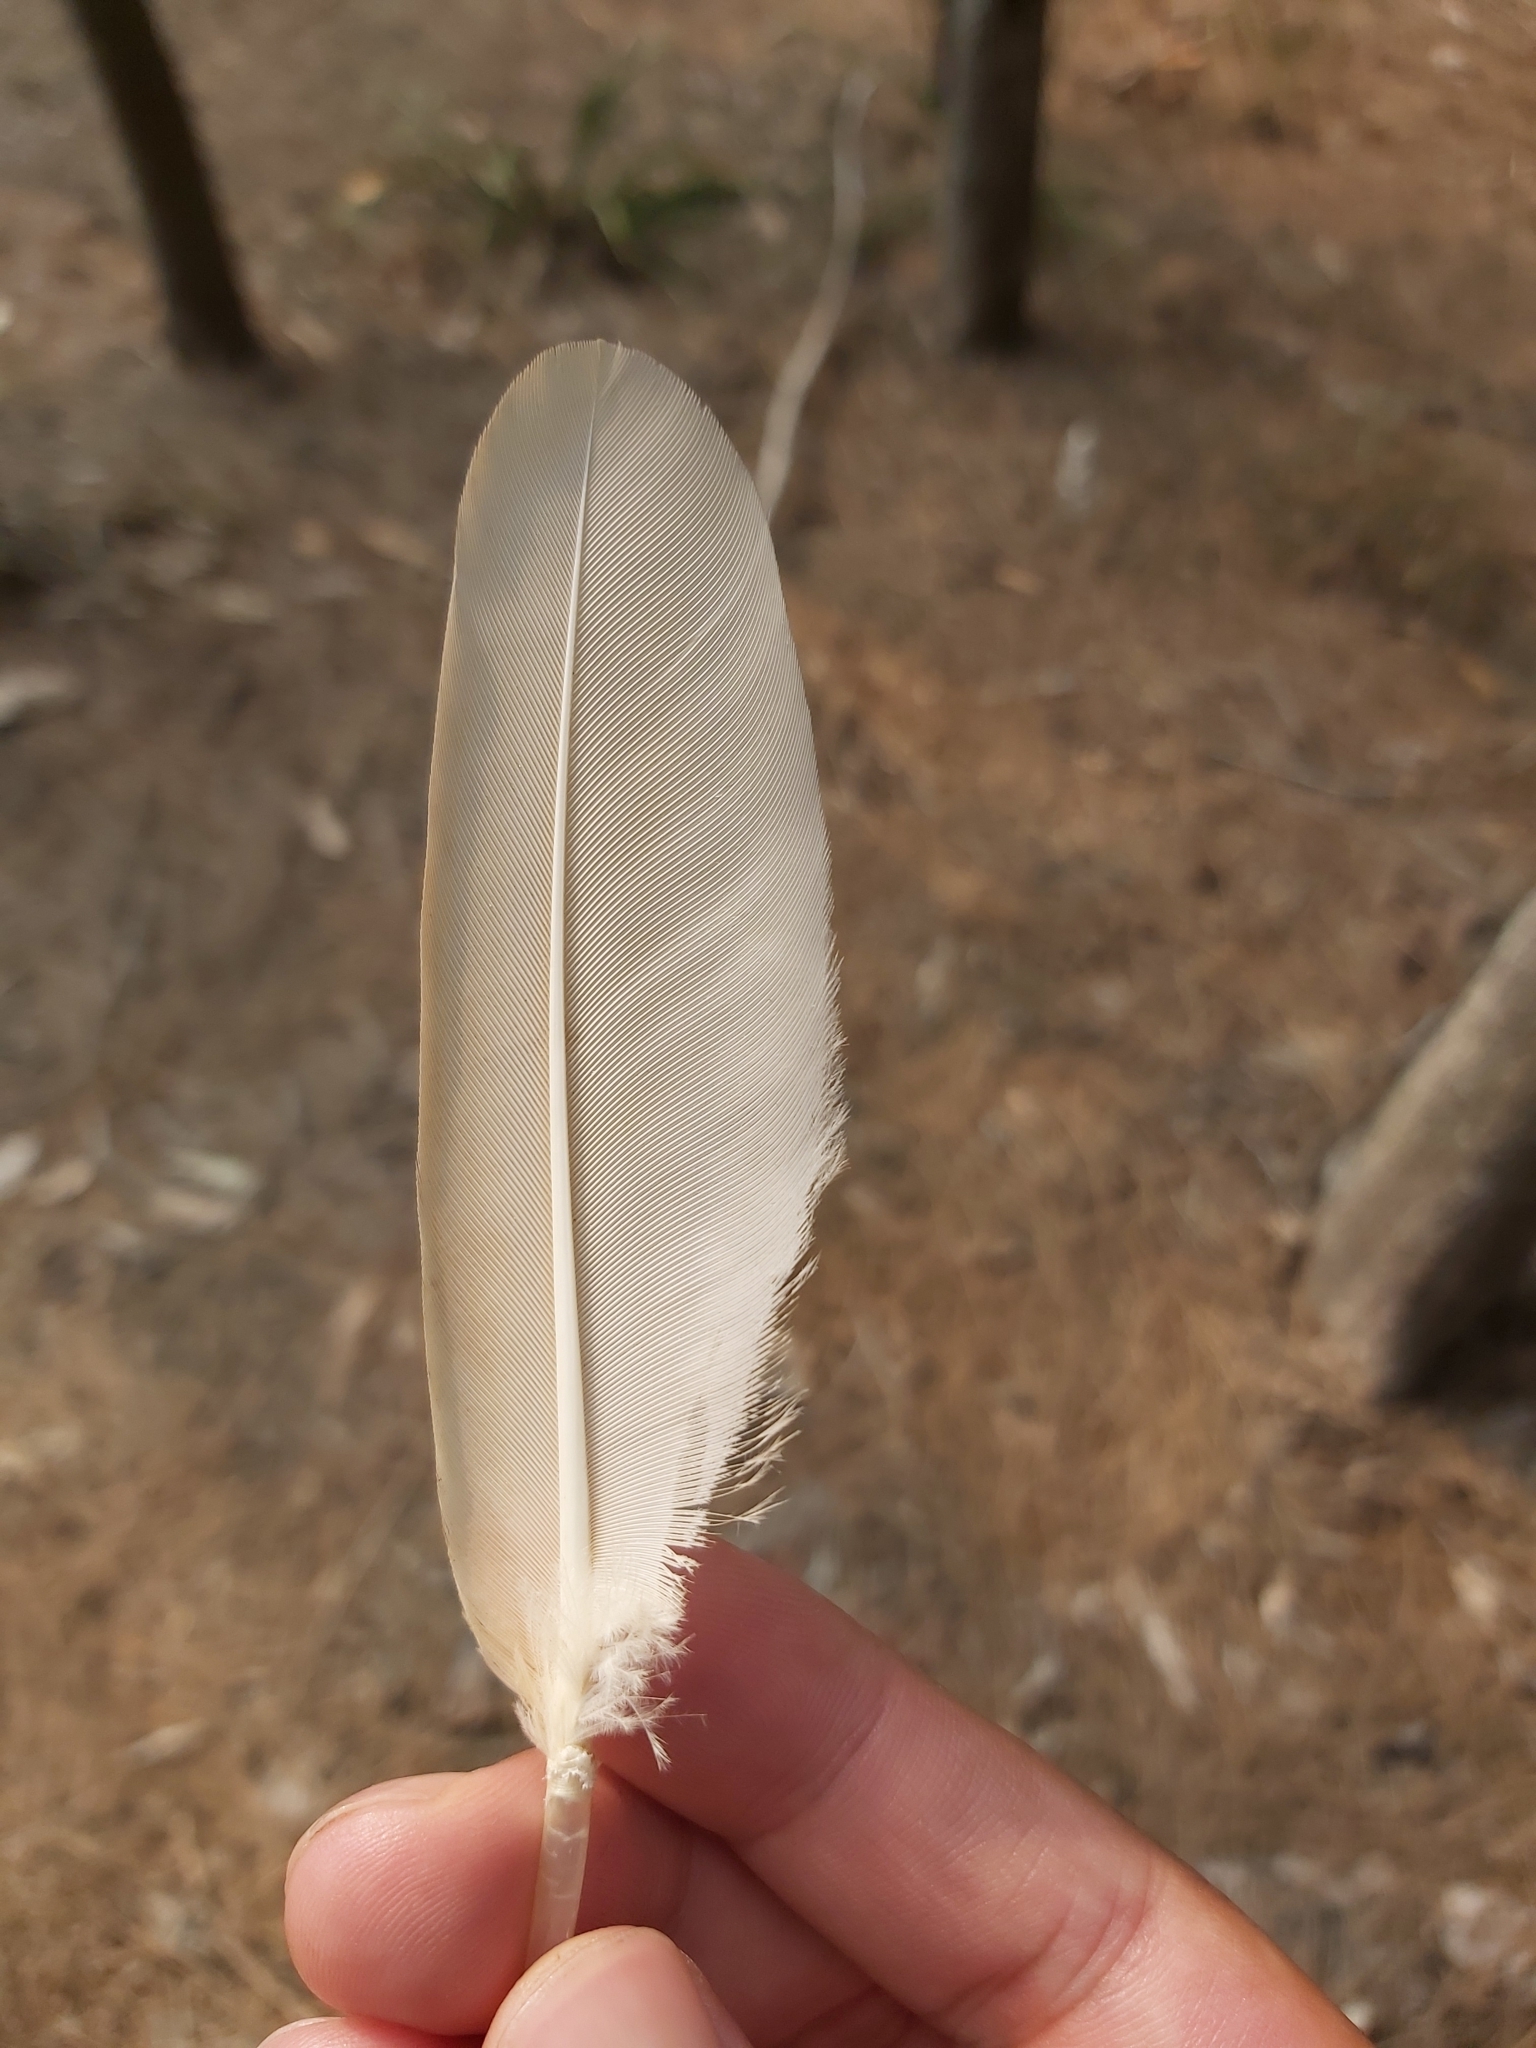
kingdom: Animalia
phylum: Chordata
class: Aves
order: Pelecaniformes
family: Threskiornithidae
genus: Threskiornis
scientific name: Threskiornis molucca
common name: Australian white ibis
